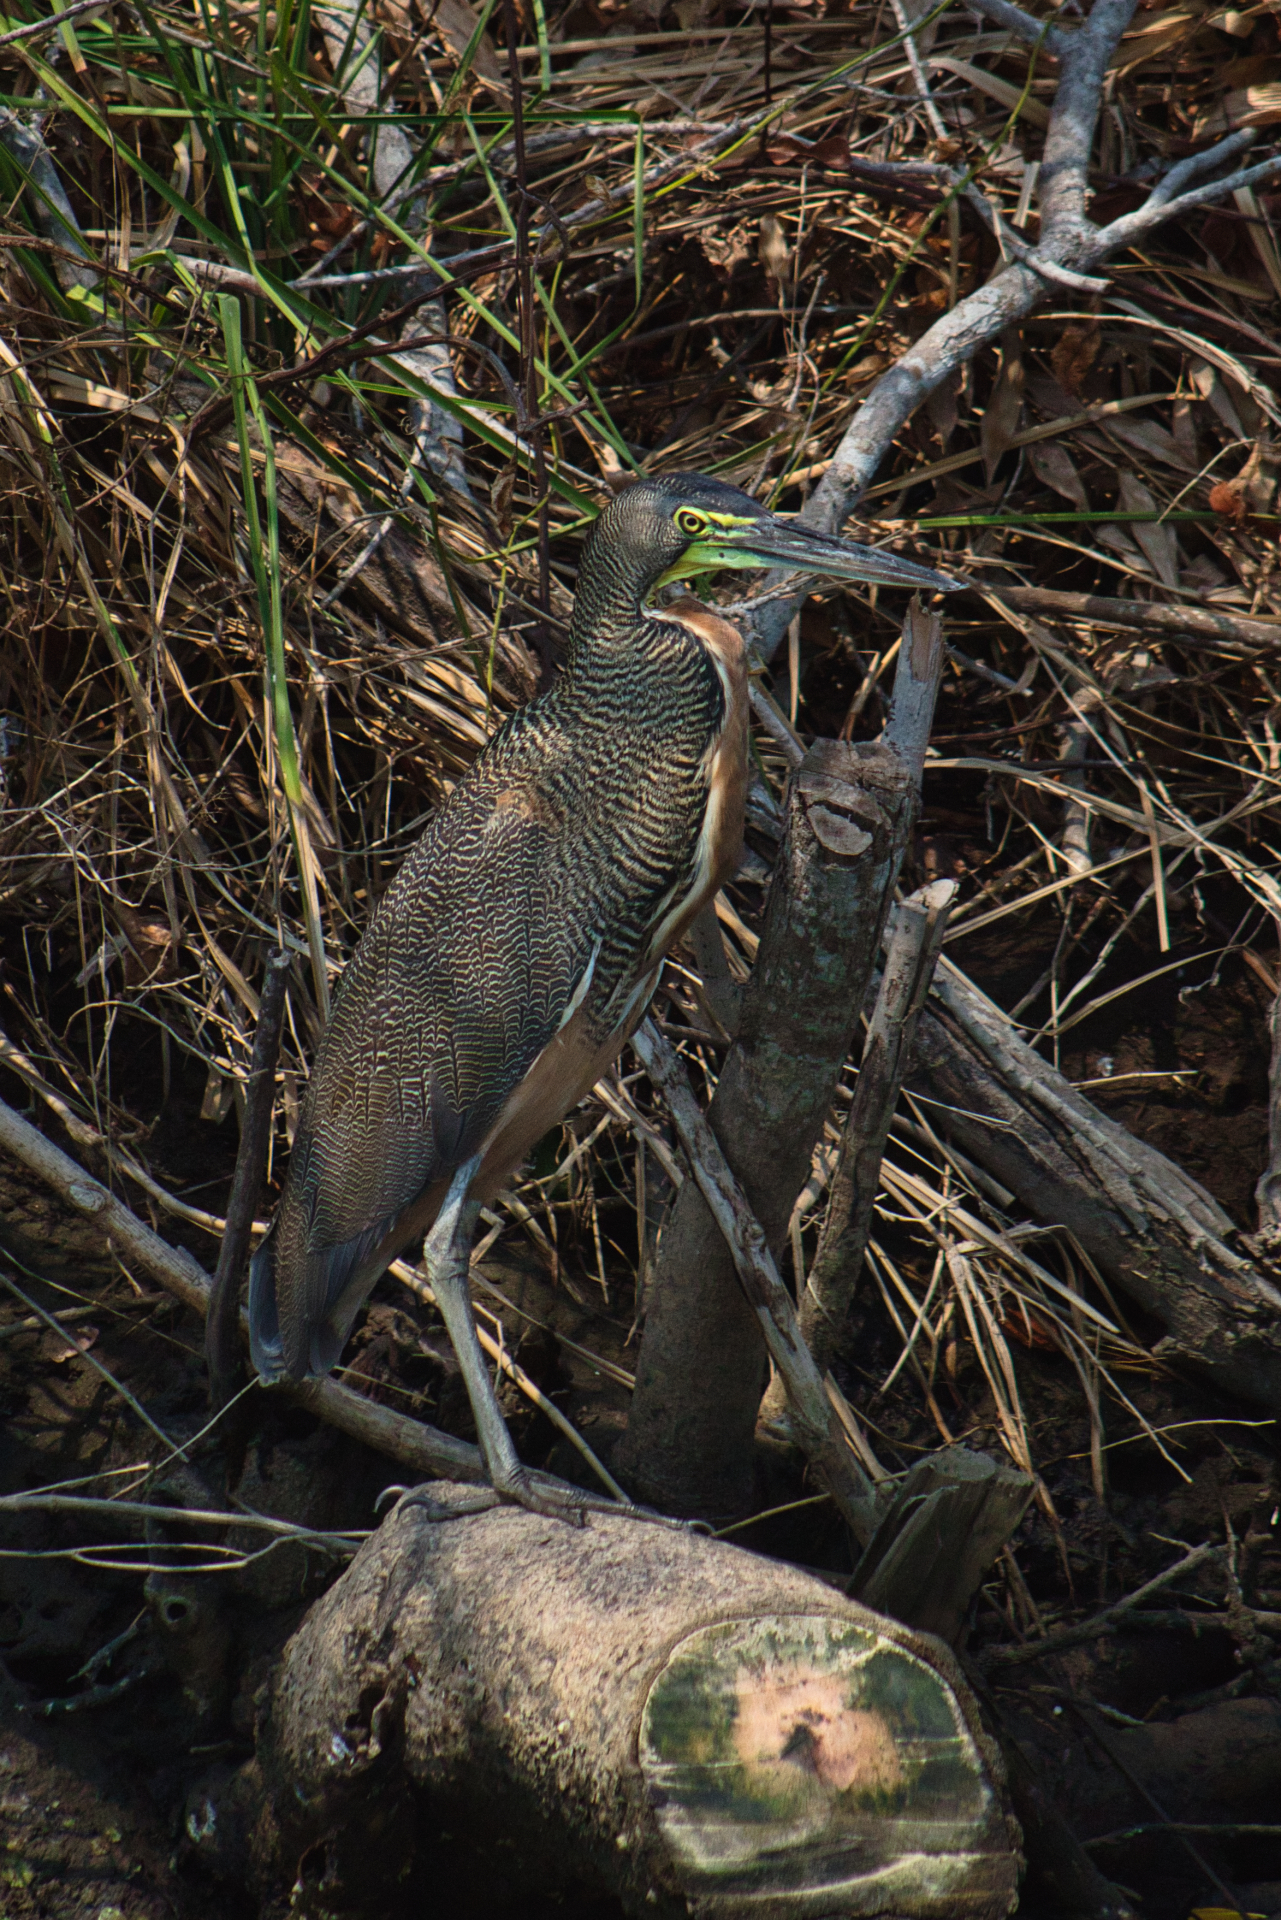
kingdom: Animalia
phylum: Chordata
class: Aves
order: Pelecaniformes
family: Ardeidae
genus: Tigrisoma
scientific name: Tigrisoma mexicanum
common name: Bare-throated tiger-heron
